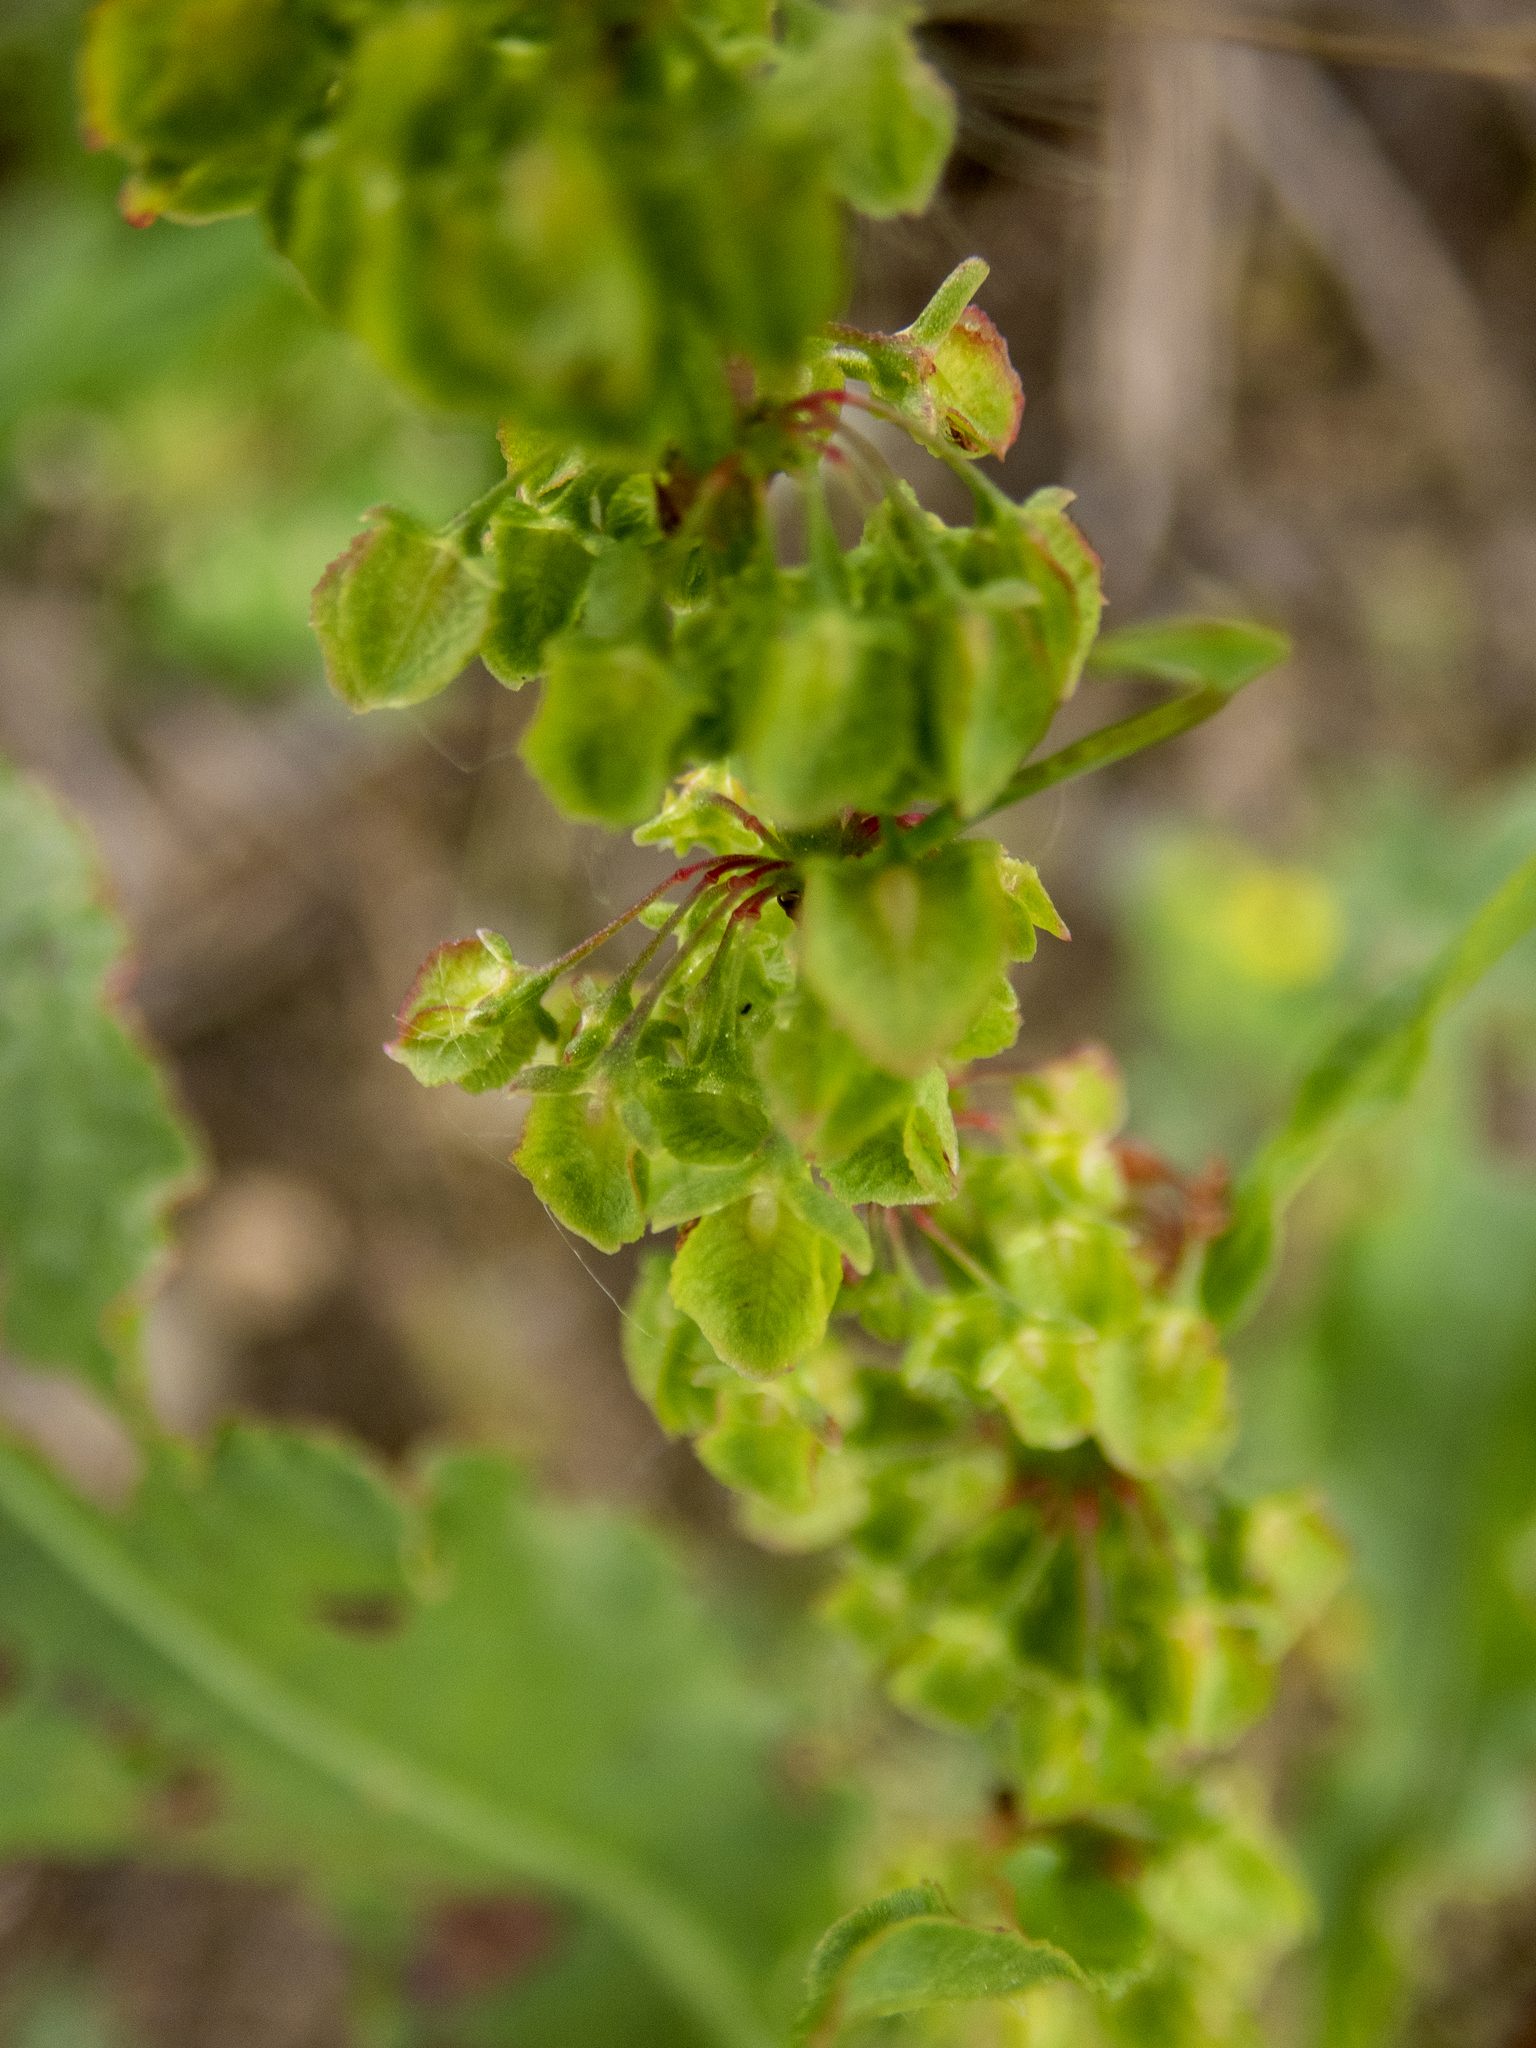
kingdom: Plantae
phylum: Tracheophyta
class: Magnoliopsida
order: Caryophyllales
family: Polygonaceae
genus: Rumex
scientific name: Rumex crispus
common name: Curled dock
